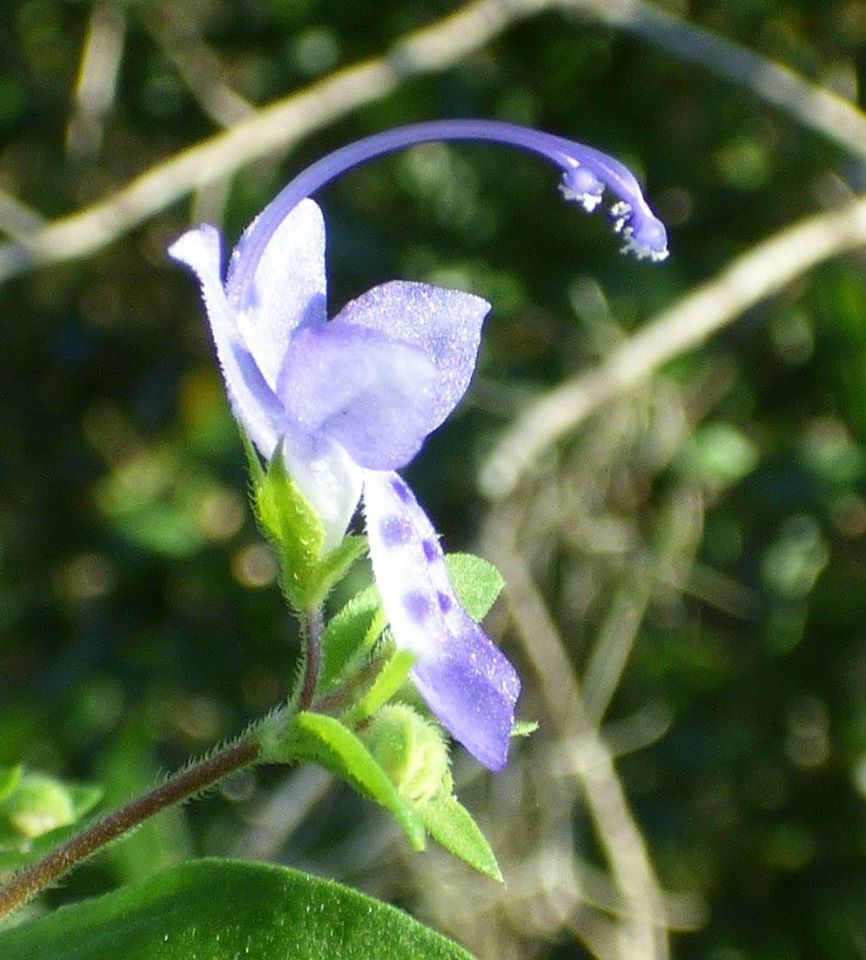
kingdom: Plantae
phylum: Tracheophyta
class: Magnoliopsida
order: Lamiales
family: Lamiaceae
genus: Trichostema
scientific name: Trichostema dichotomum
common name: Bastard pennyroyal
